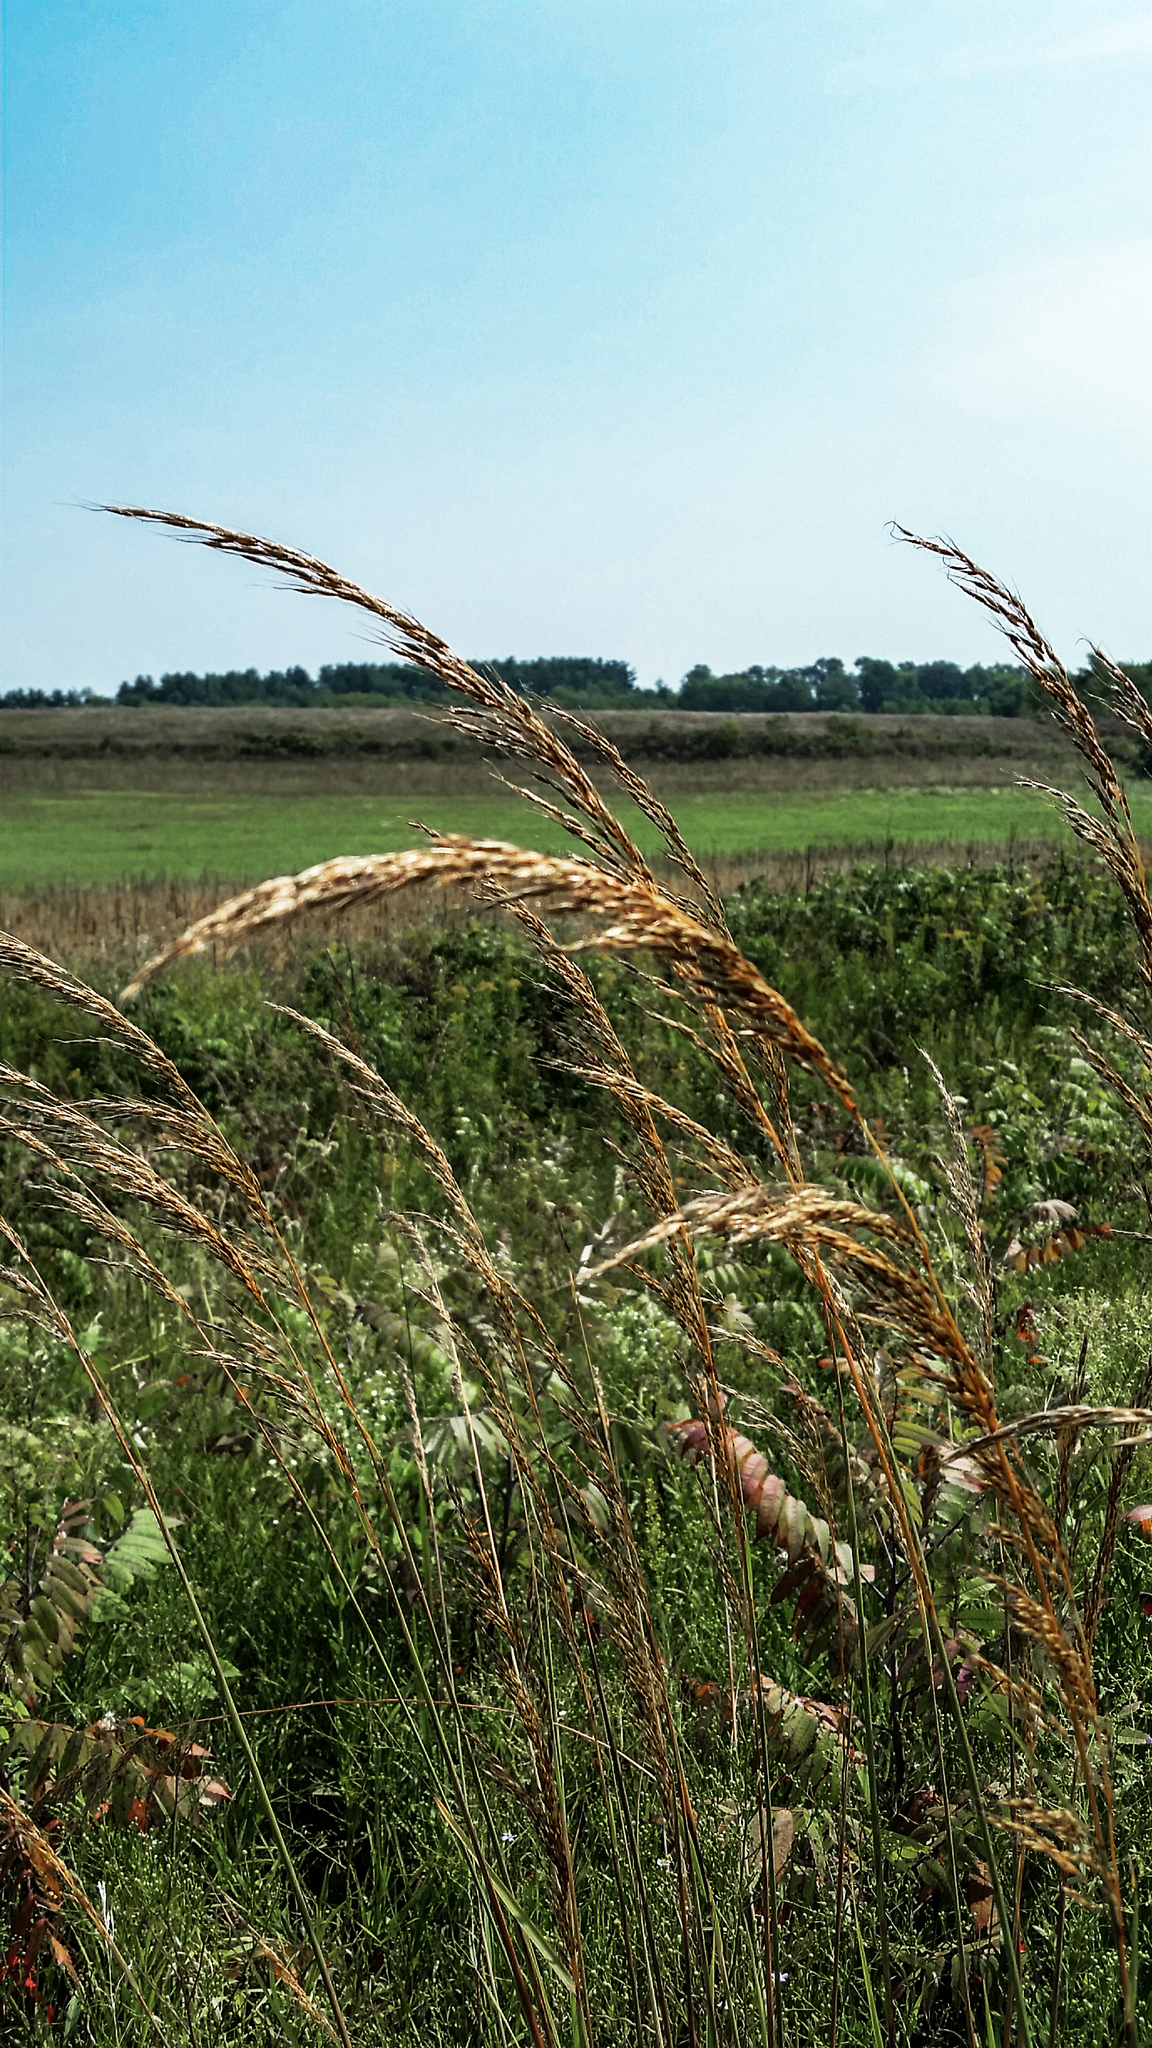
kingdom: Plantae
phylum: Tracheophyta
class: Liliopsida
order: Poales
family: Poaceae
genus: Sorghastrum
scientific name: Sorghastrum nutans
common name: Indian grass
